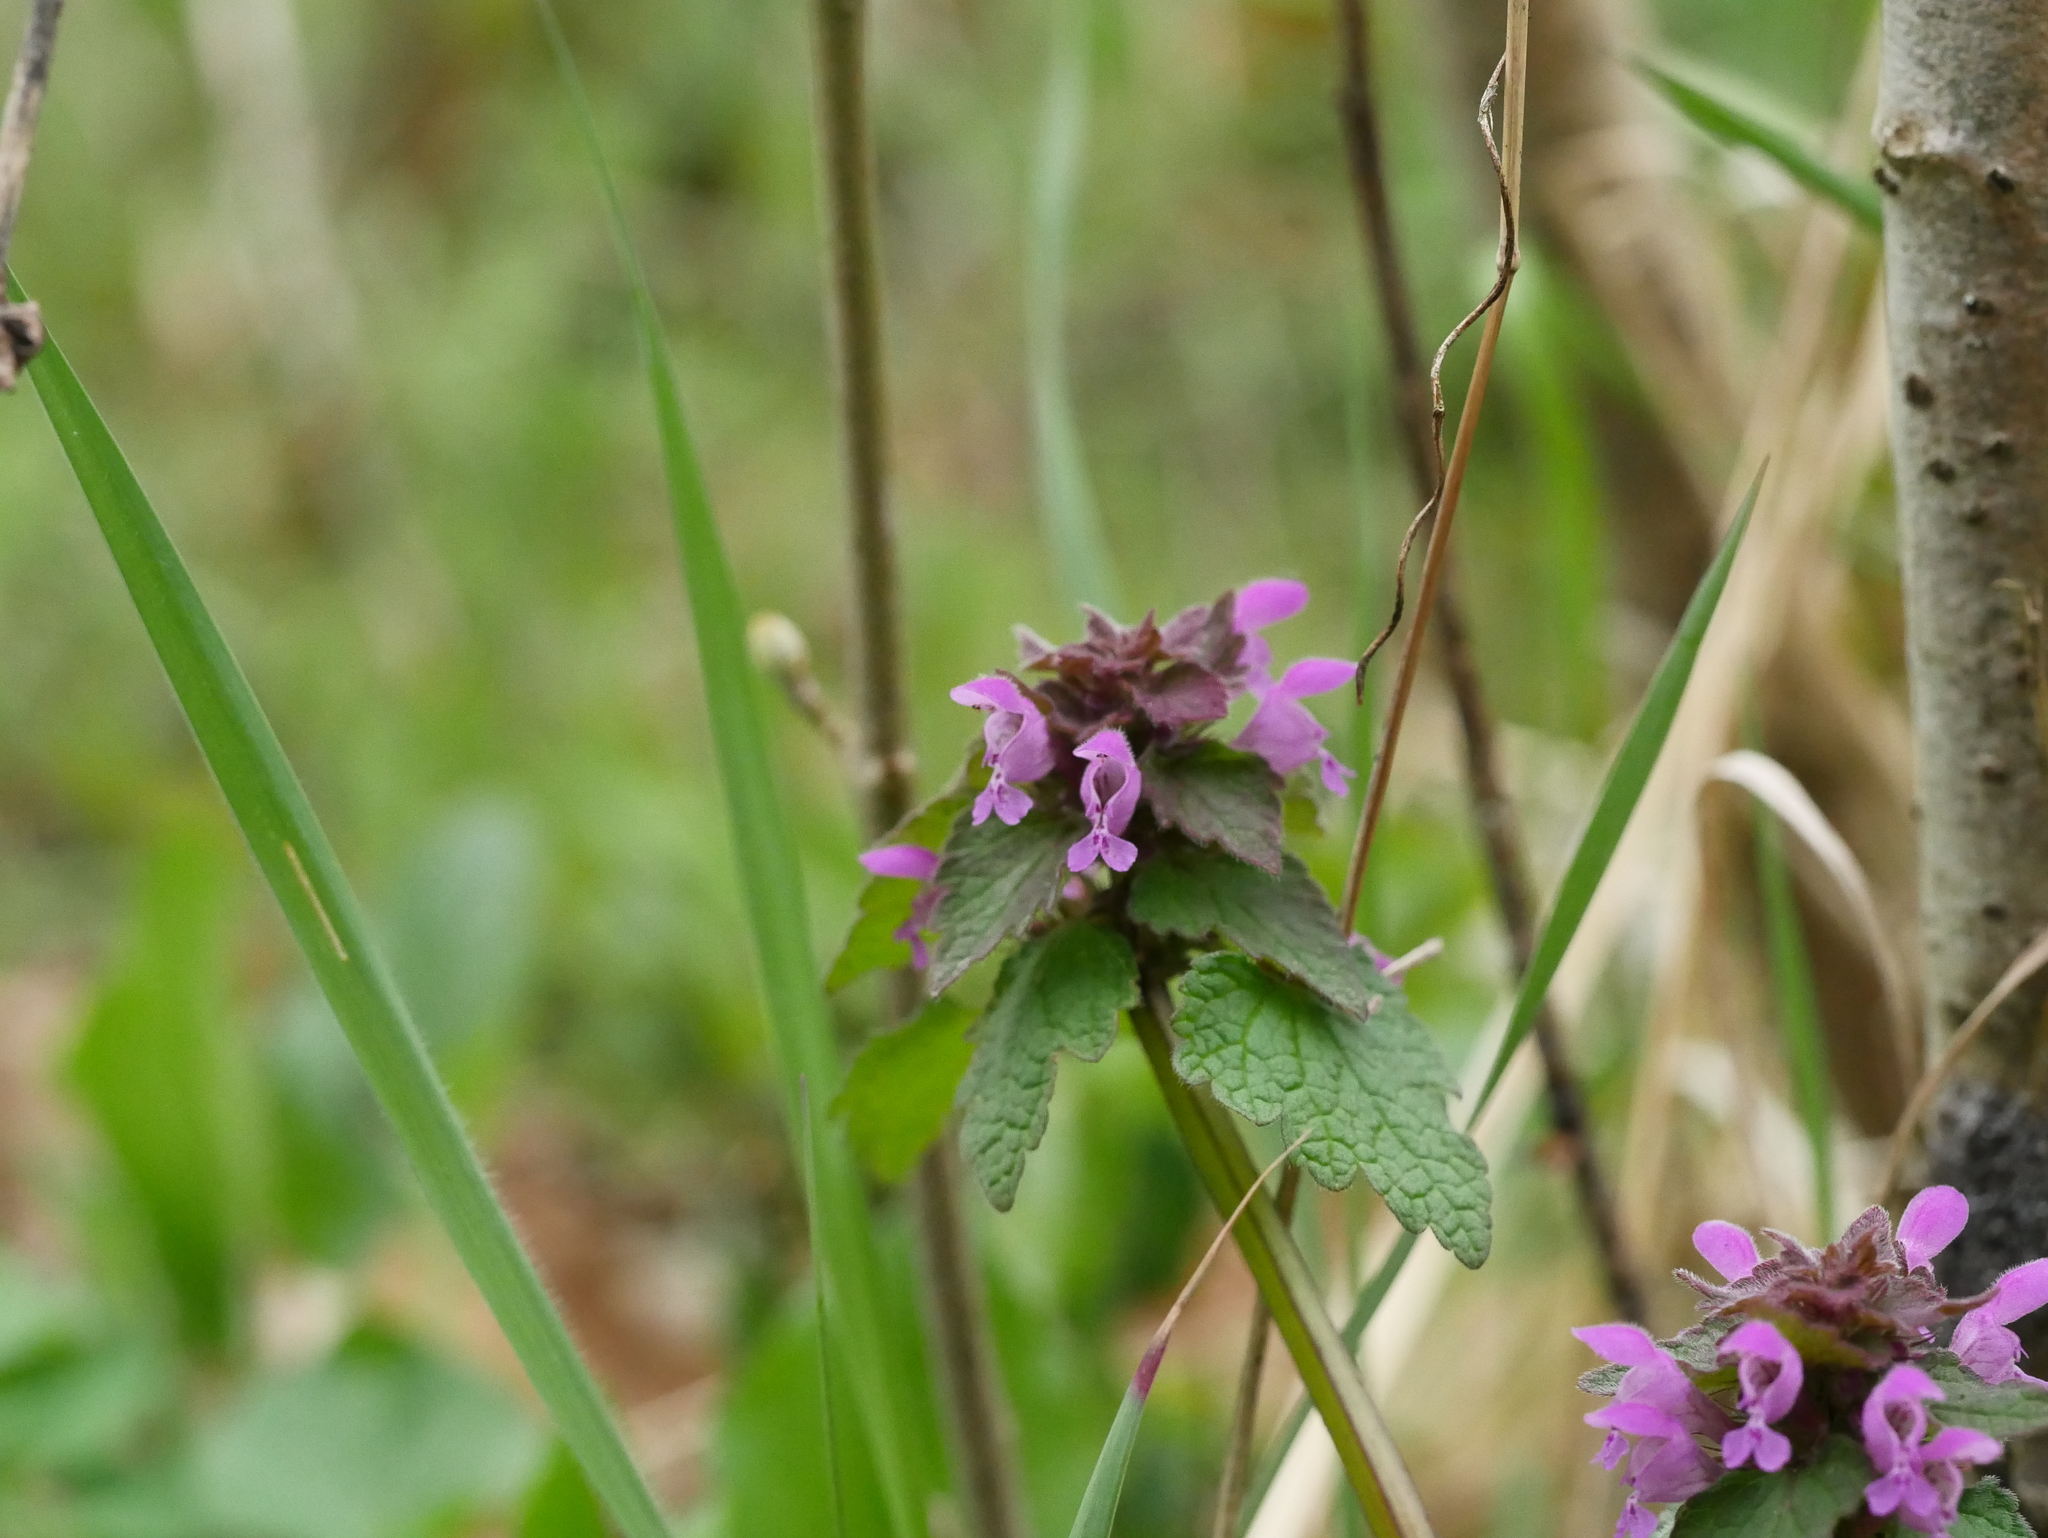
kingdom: Plantae
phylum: Tracheophyta
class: Magnoliopsida
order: Lamiales
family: Lamiaceae
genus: Lamium
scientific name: Lamium purpureum
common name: Red dead-nettle
